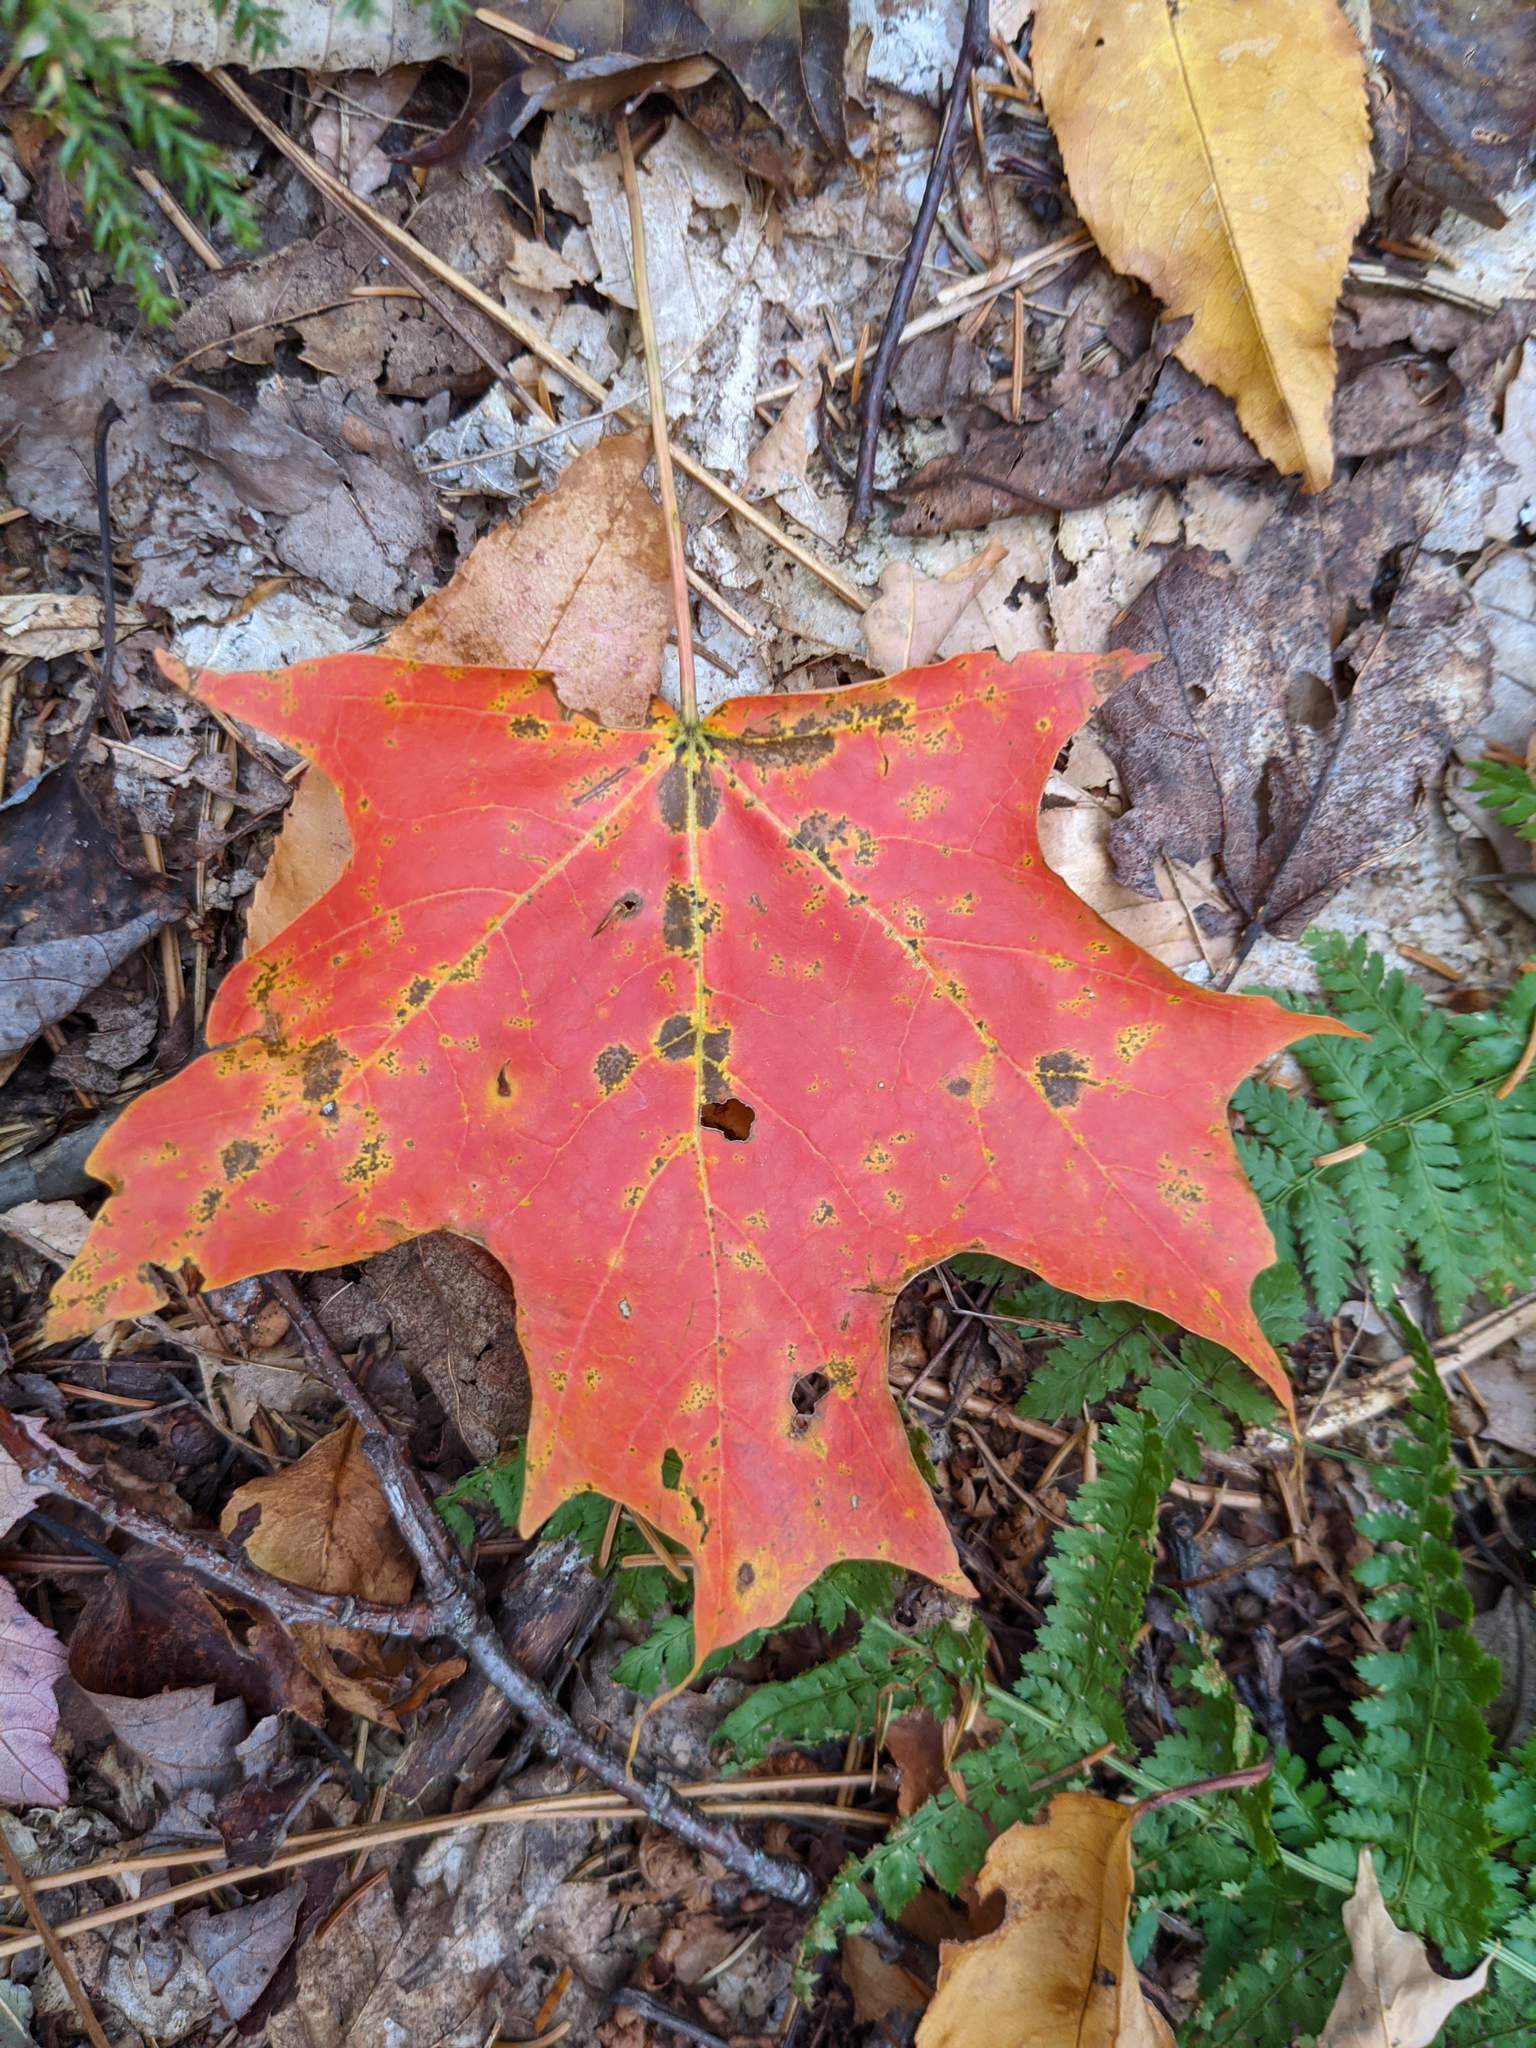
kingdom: Plantae
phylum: Tracheophyta
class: Magnoliopsida
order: Sapindales
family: Sapindaceae
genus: Acer
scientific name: Acer saccharum
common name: Sugar maple
